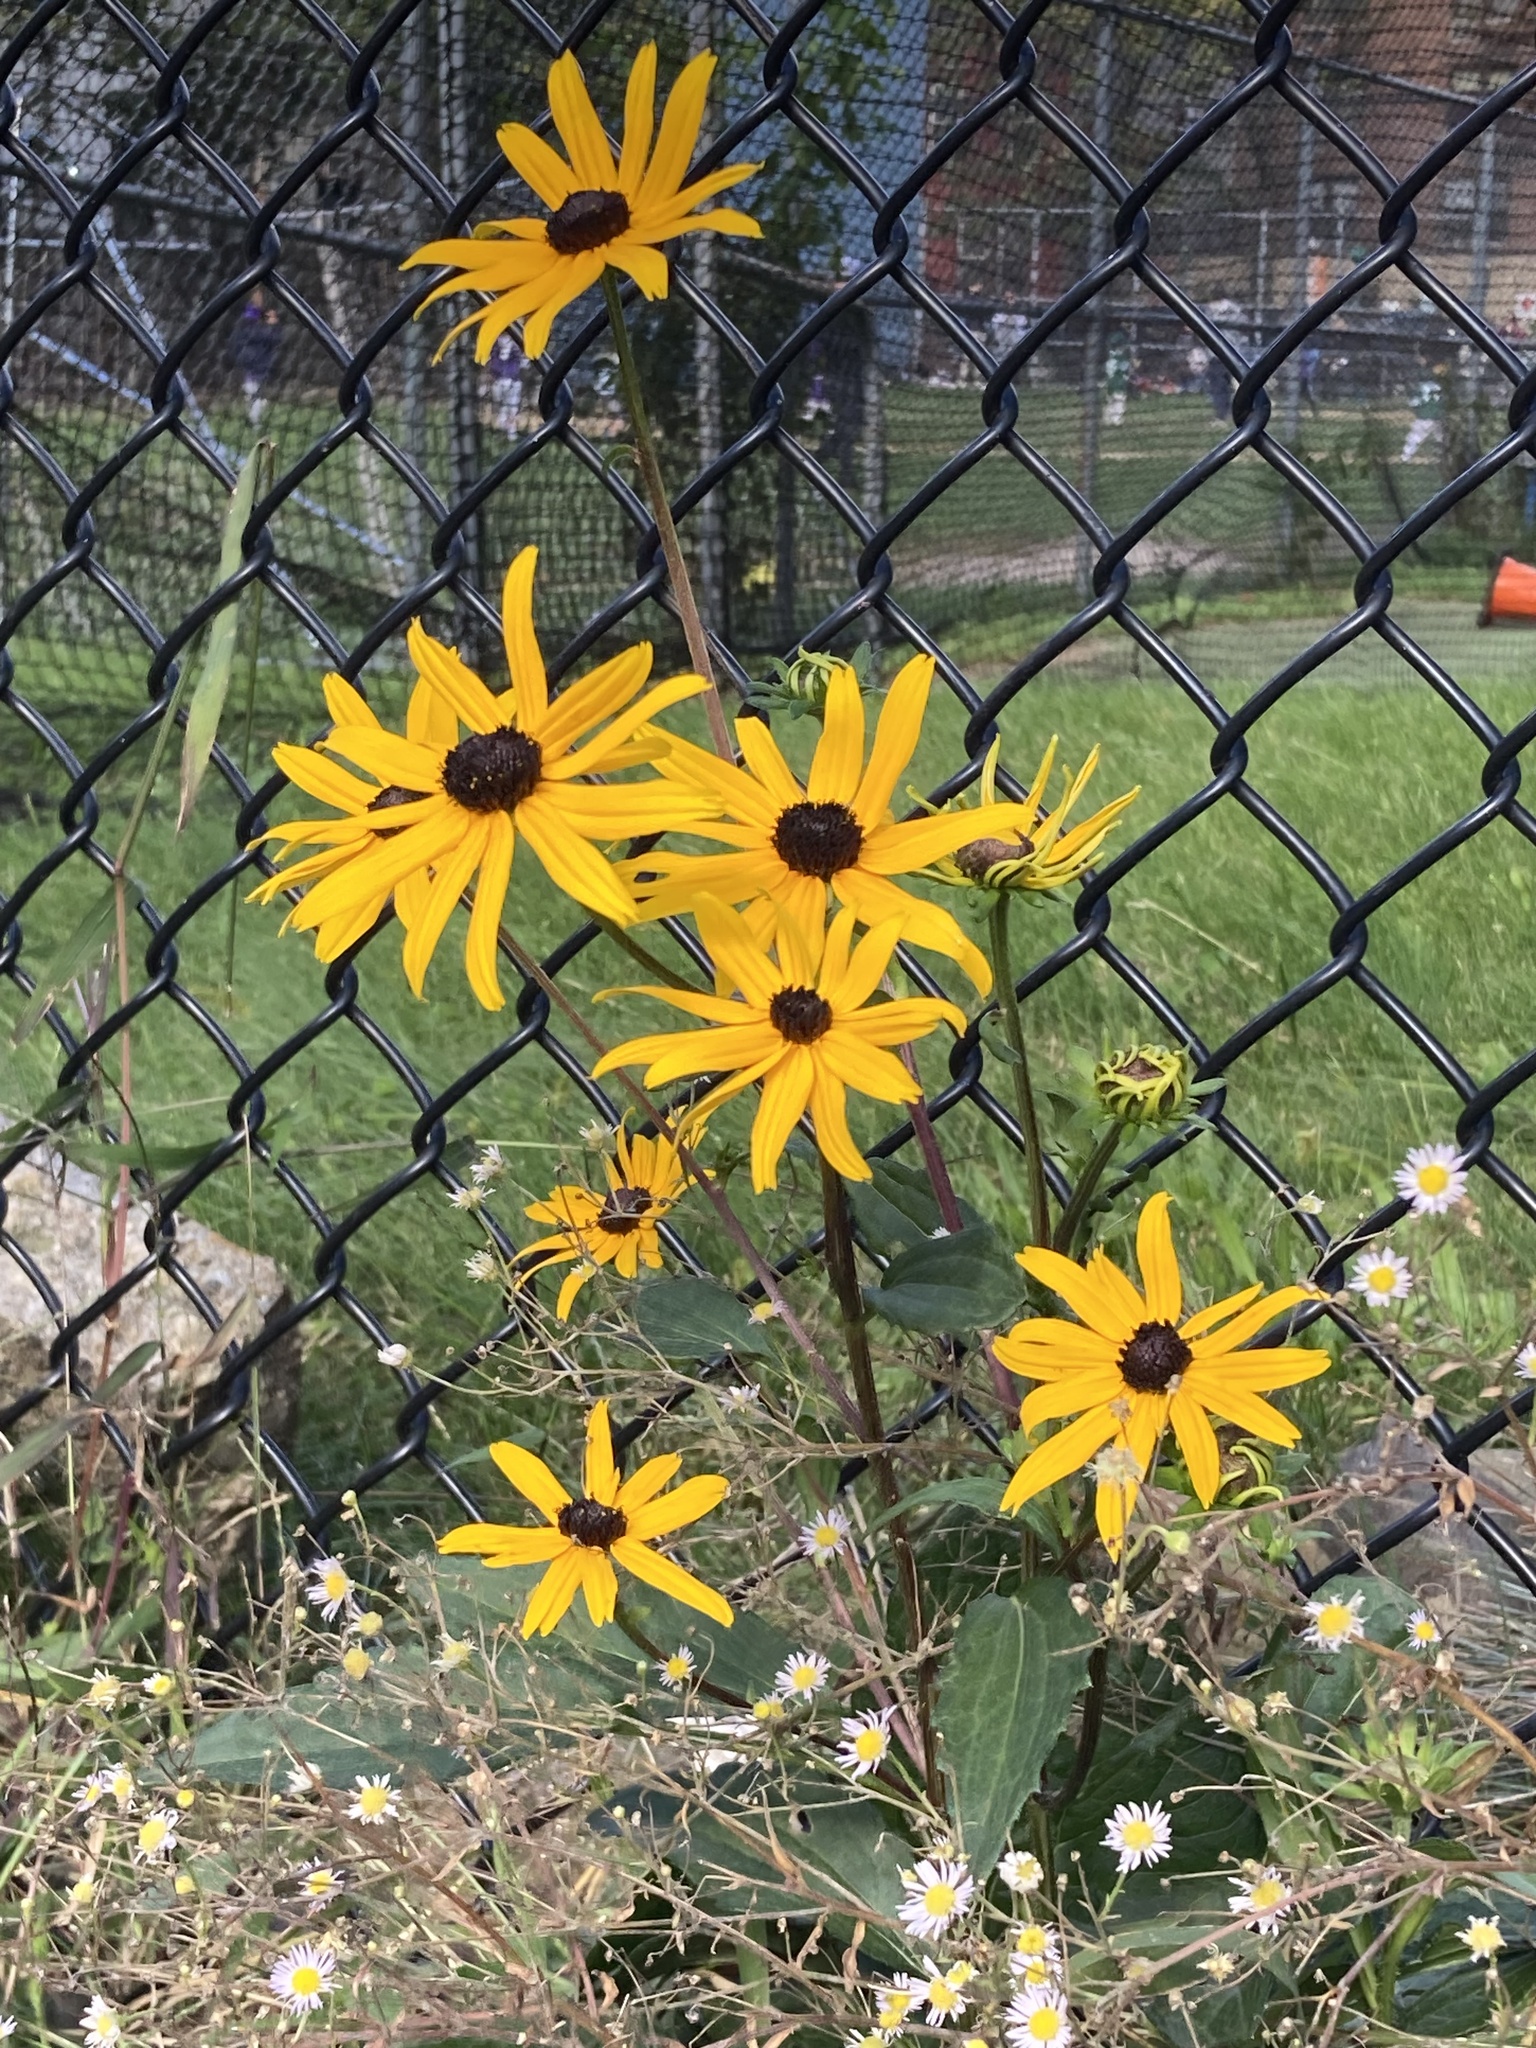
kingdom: Plantae
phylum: Tracheophyta
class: Magnoliopsida
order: Asterales
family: Asteraceae
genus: Rudbeckia
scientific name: Rudbeckia fulgida
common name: Perennial coneflower
